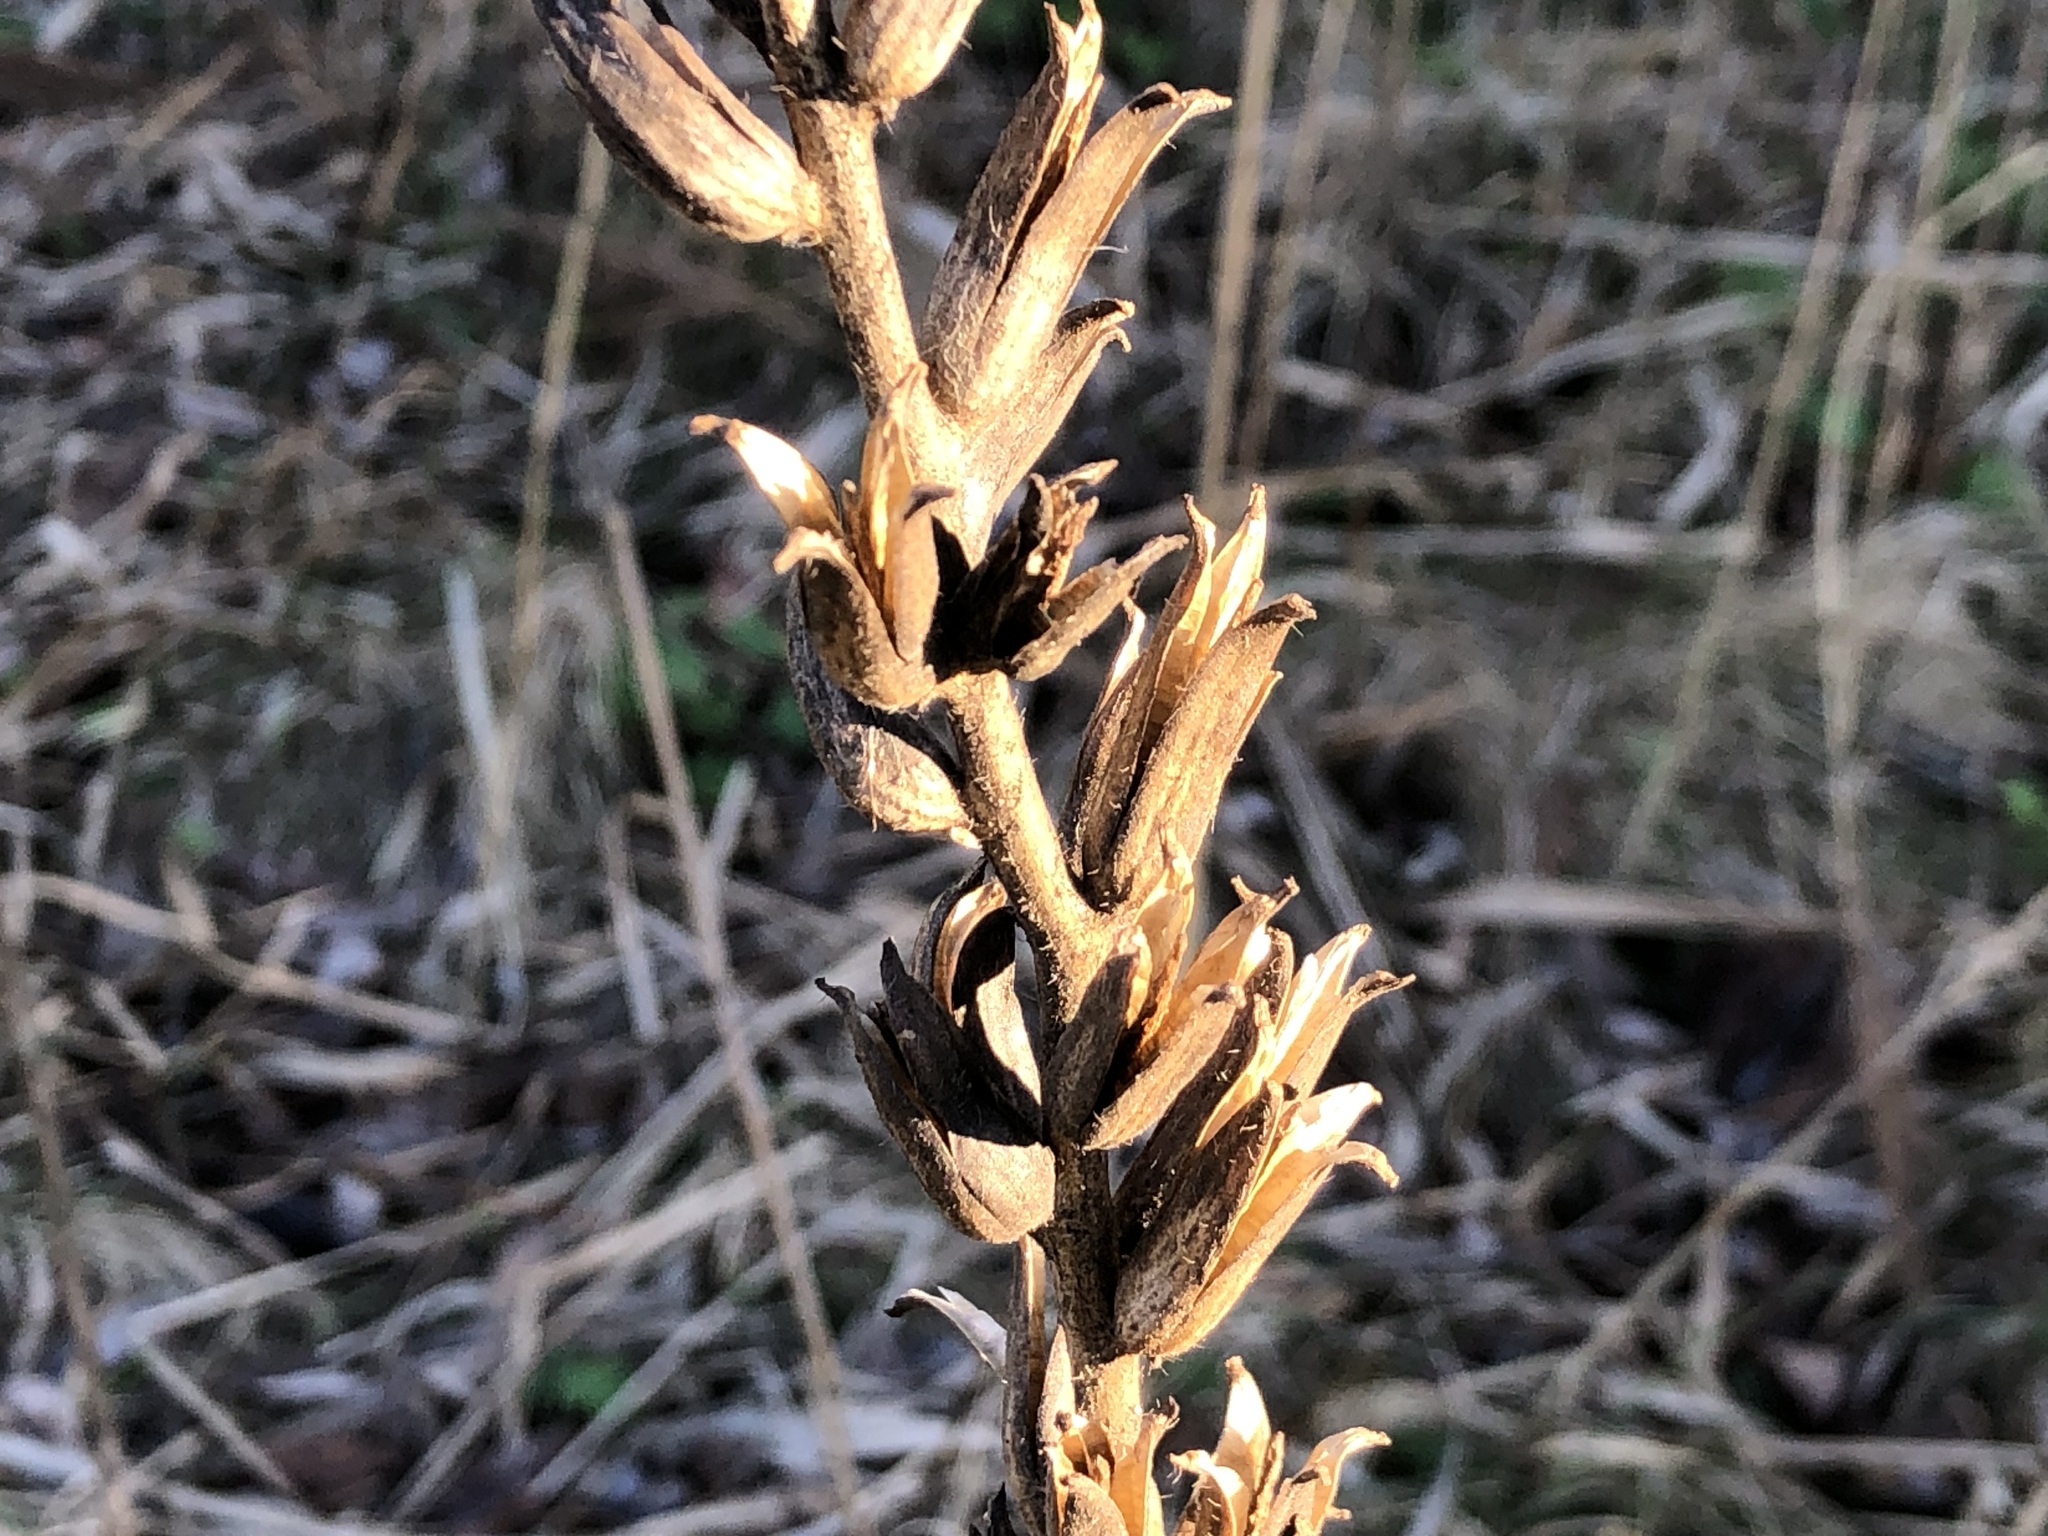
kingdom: Plantae
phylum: Tracheophyta
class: Magnoliopsida
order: Myrtales
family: Onagraceae
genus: Oenothera
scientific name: Oenothera
